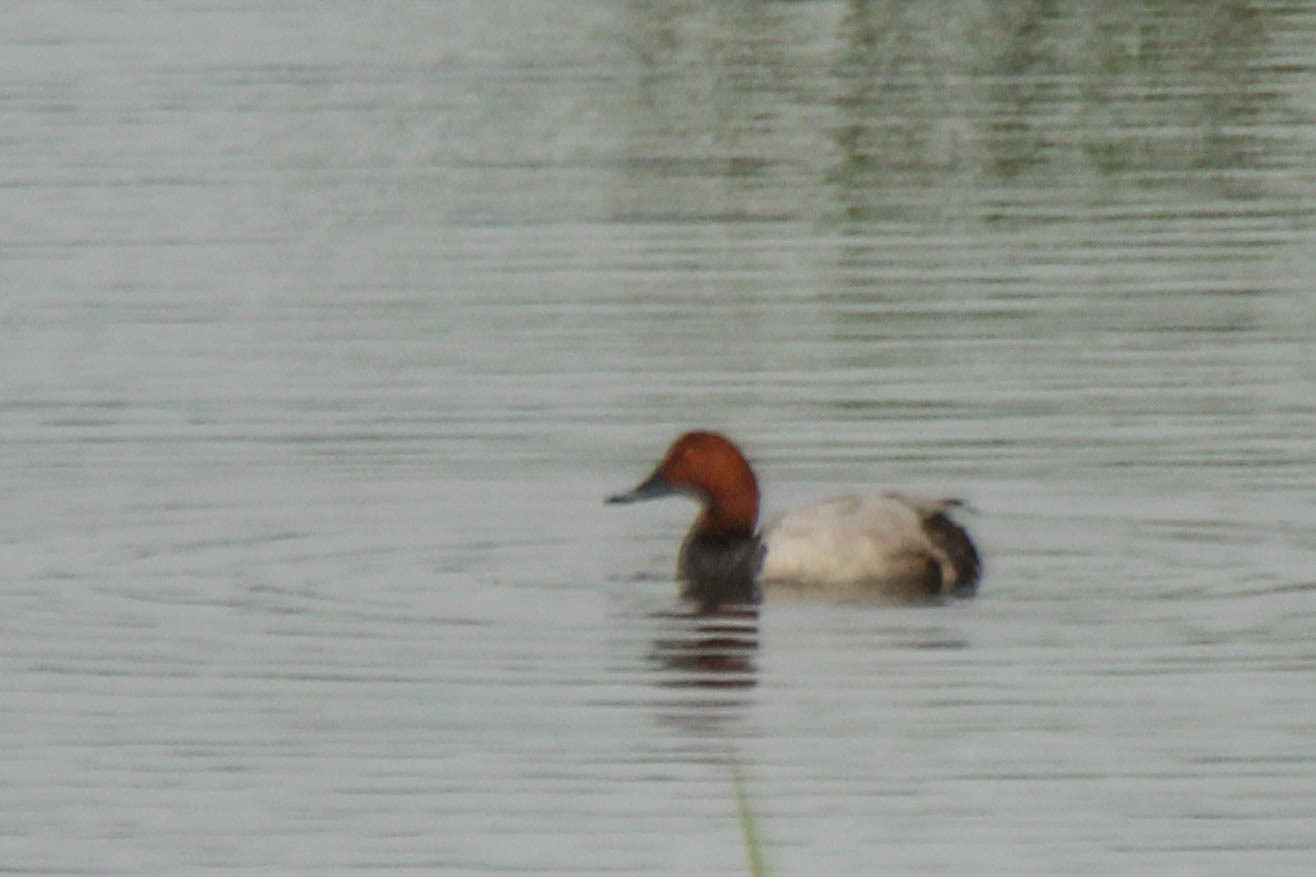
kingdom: Animalia
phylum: Chordata
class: Aves
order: Anseriformes
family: Anatidae
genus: Aythya
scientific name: Aythya ferina
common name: Common pochard
